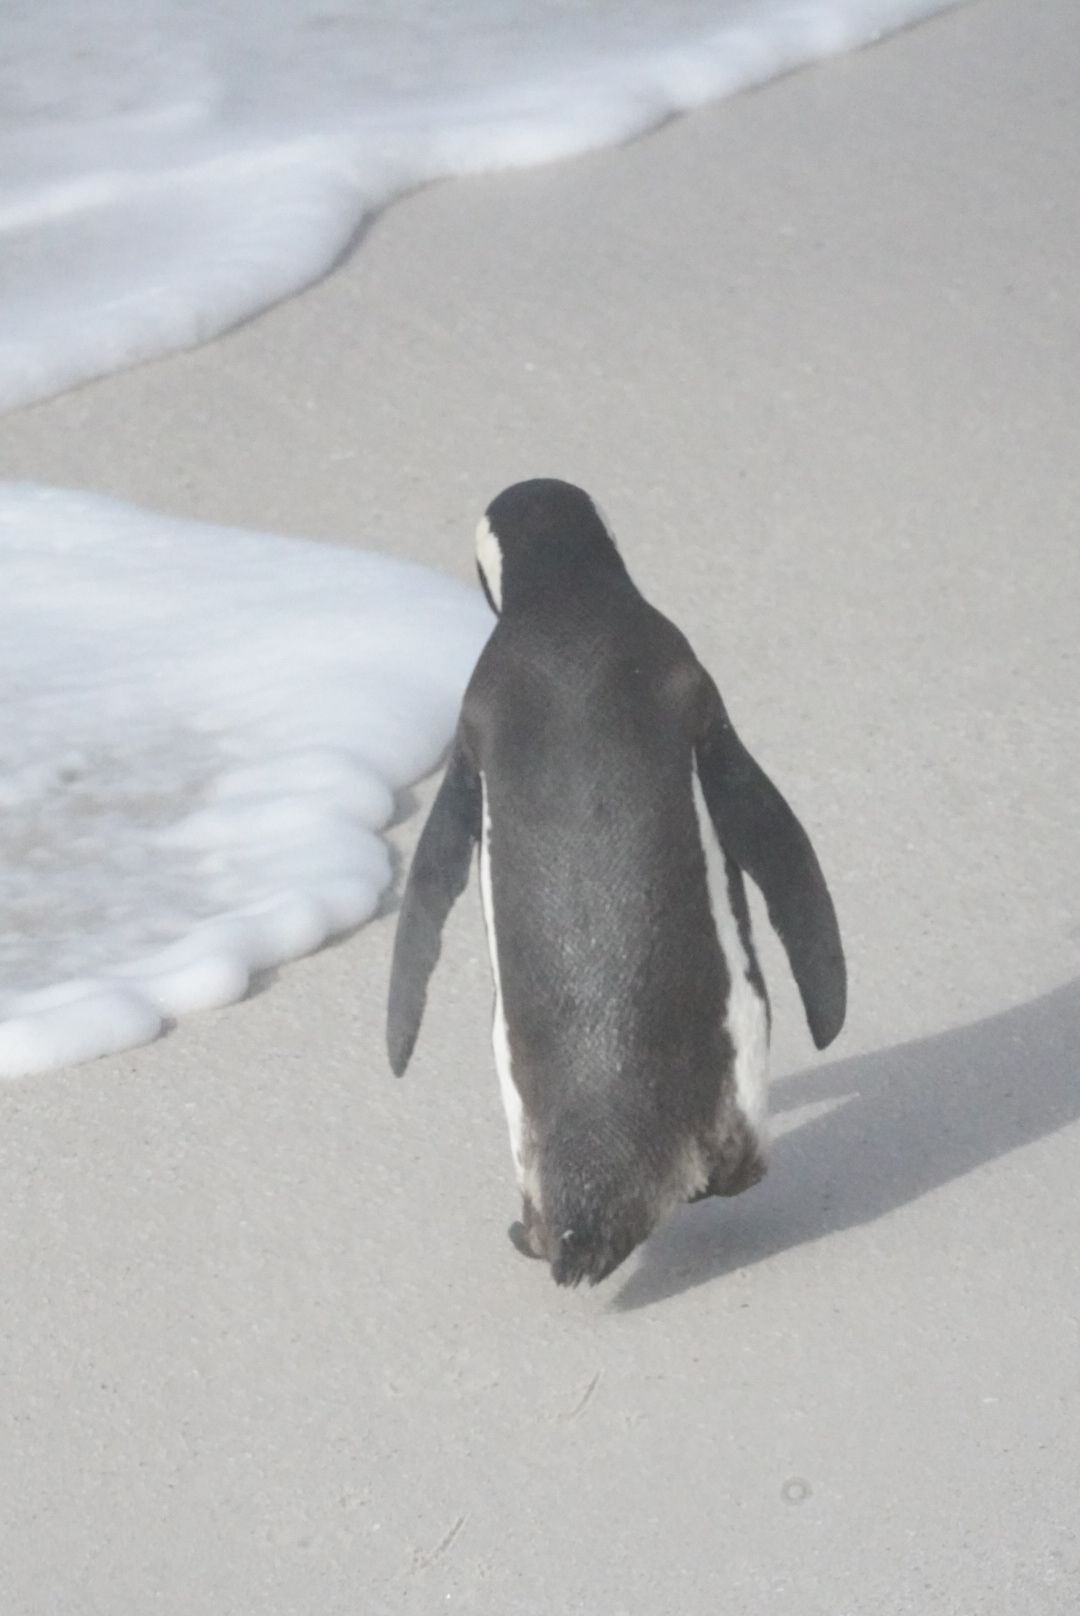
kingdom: Animalia
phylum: Chordata
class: Aves
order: Sphenisciformes
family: Spheniscidae
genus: Spheniscus
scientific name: Spheniscus demersus
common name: African penguin
